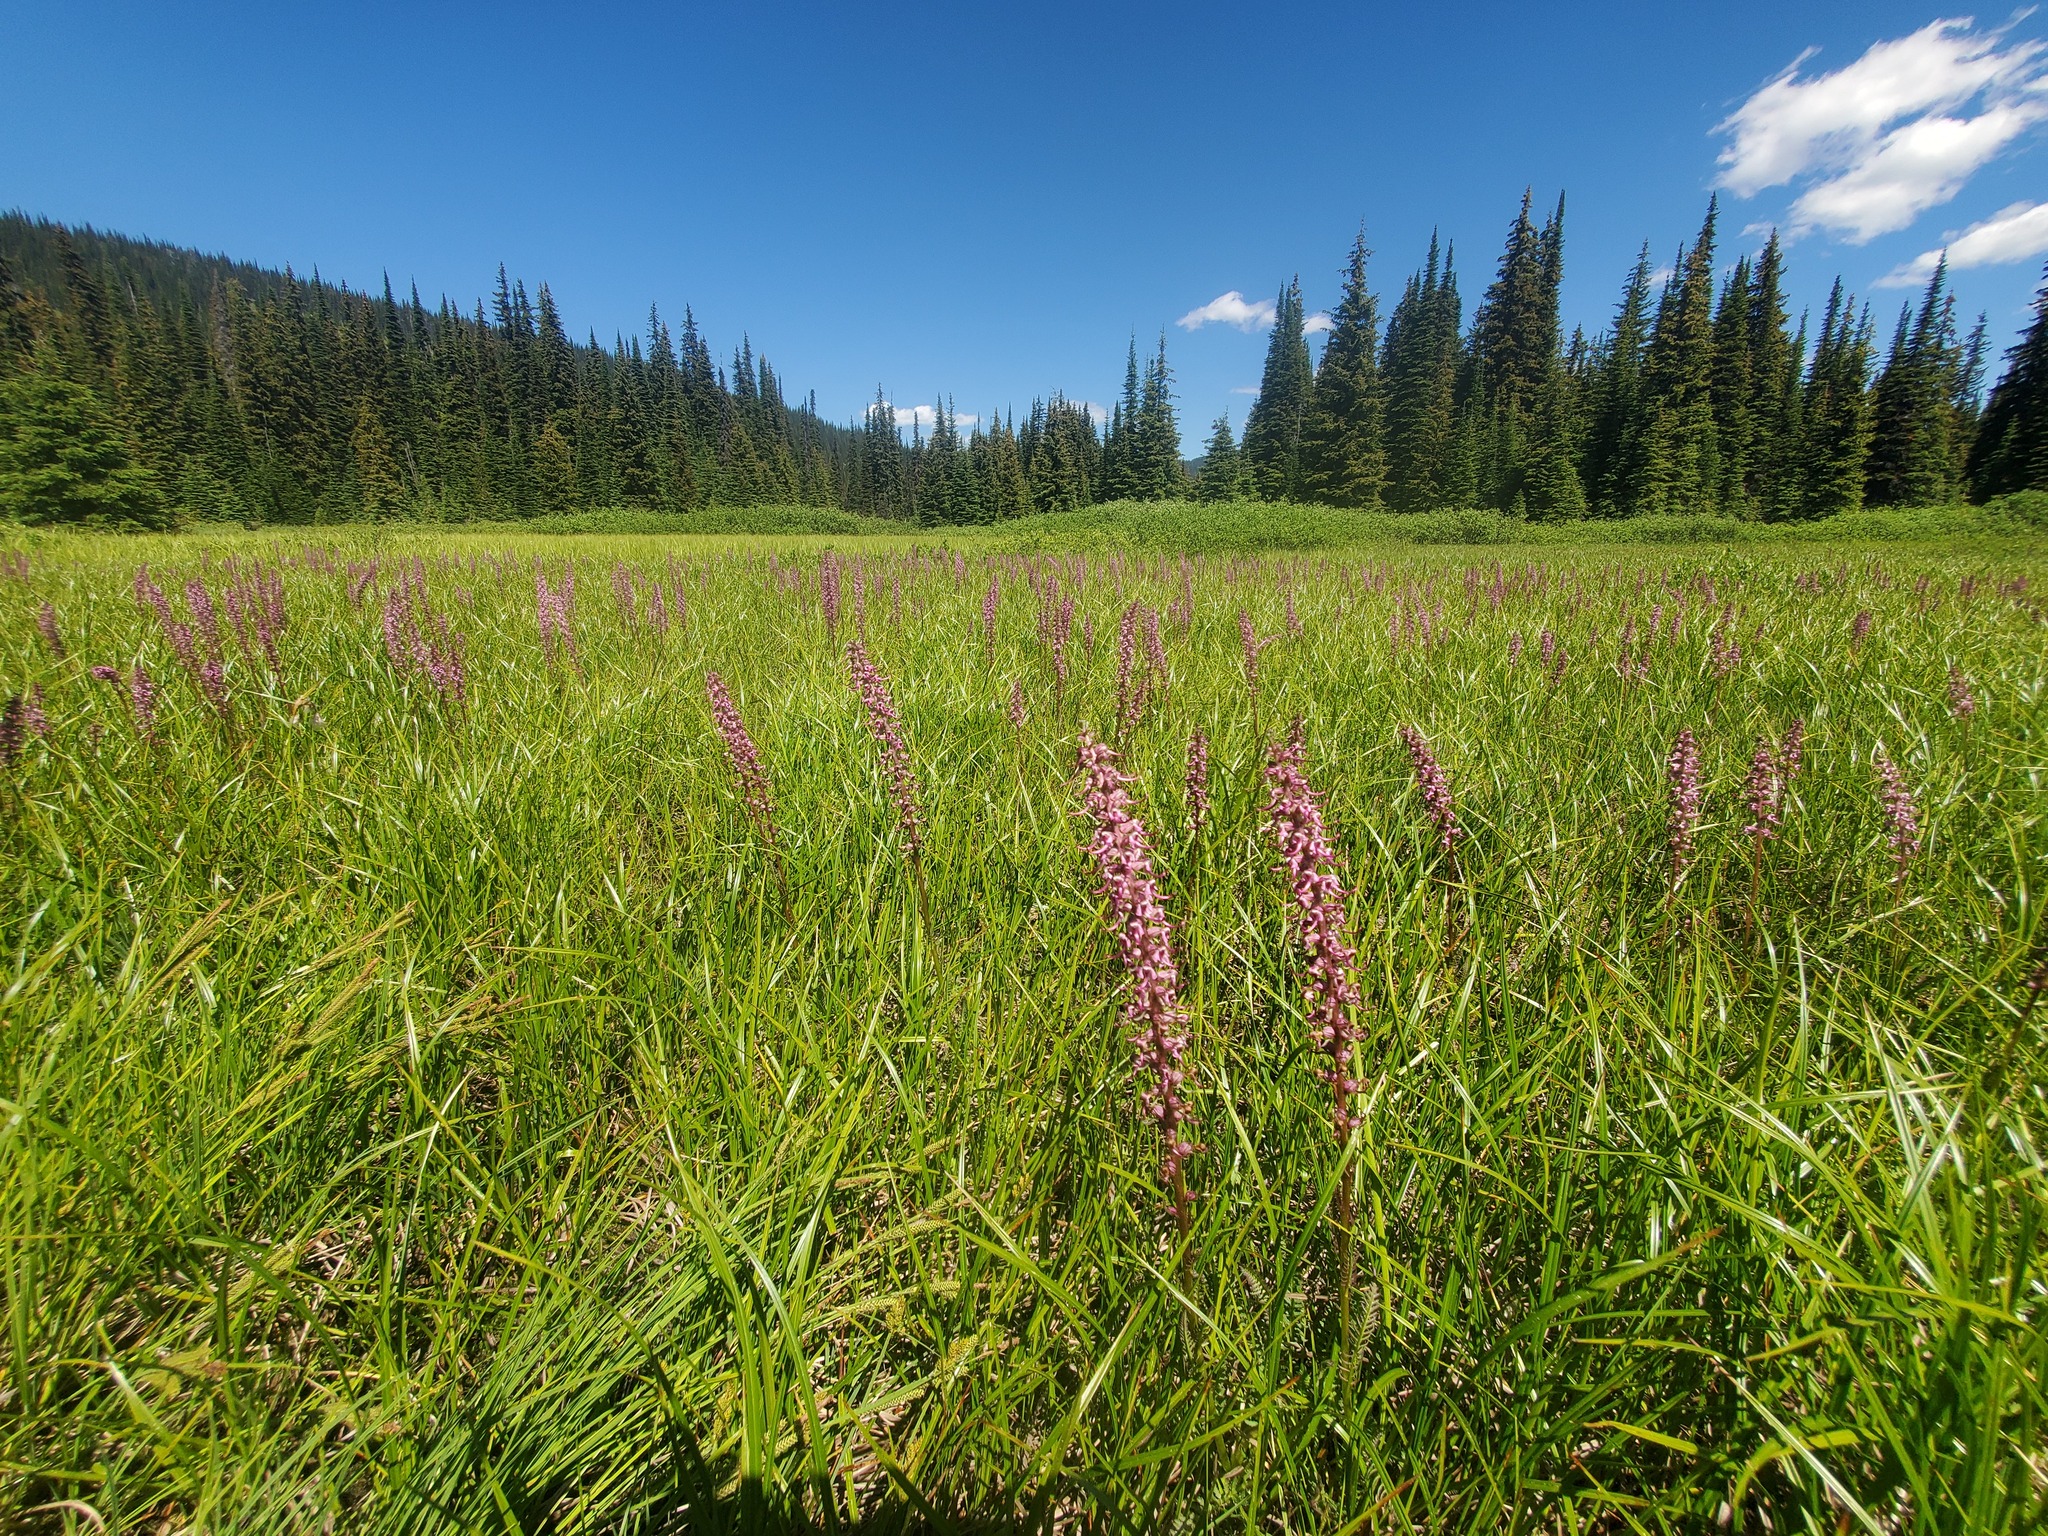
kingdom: Plantae
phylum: Tracheophyta
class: Magnoliopsida
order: Lamiales
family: Orobanchaceae
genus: Pedicularis
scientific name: Pedicularis groenlandica
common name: Elephant's-head
